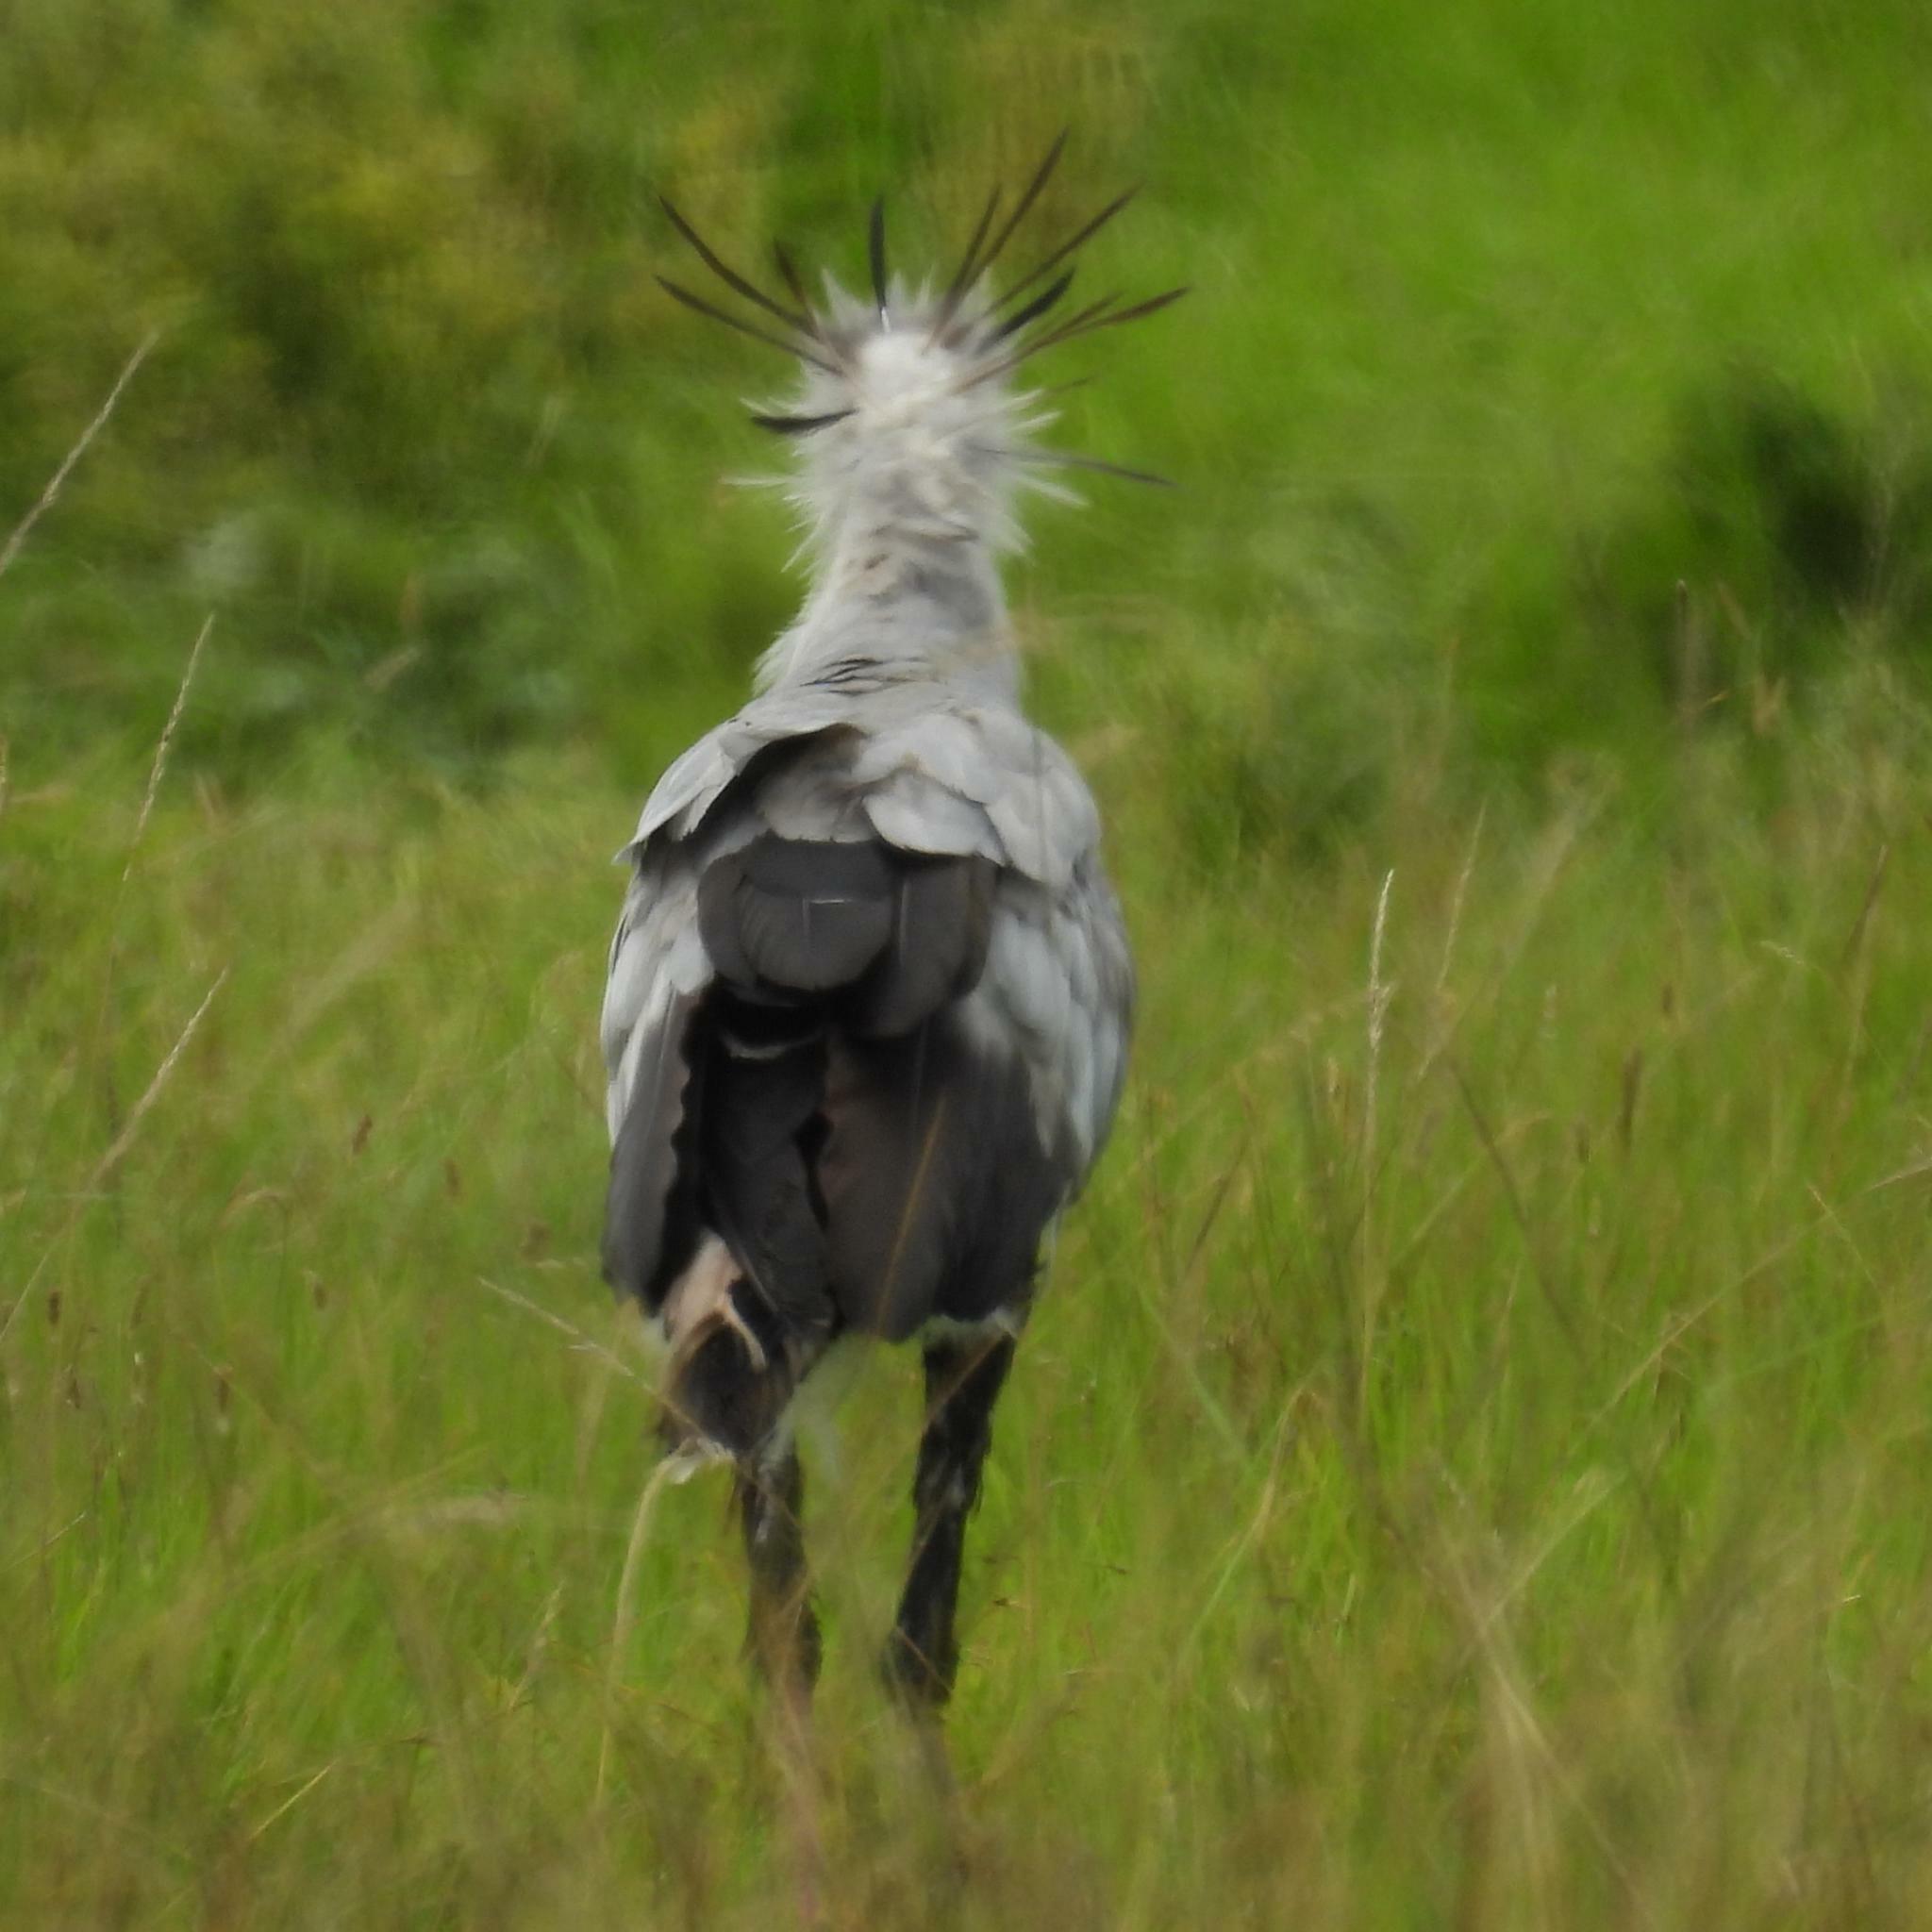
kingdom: Animalia
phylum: Chordata
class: Aves
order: Accipitriformes
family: Sagittariidae
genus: Sagittarius
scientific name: Sagittarius serpentarius
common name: Secretarybird
